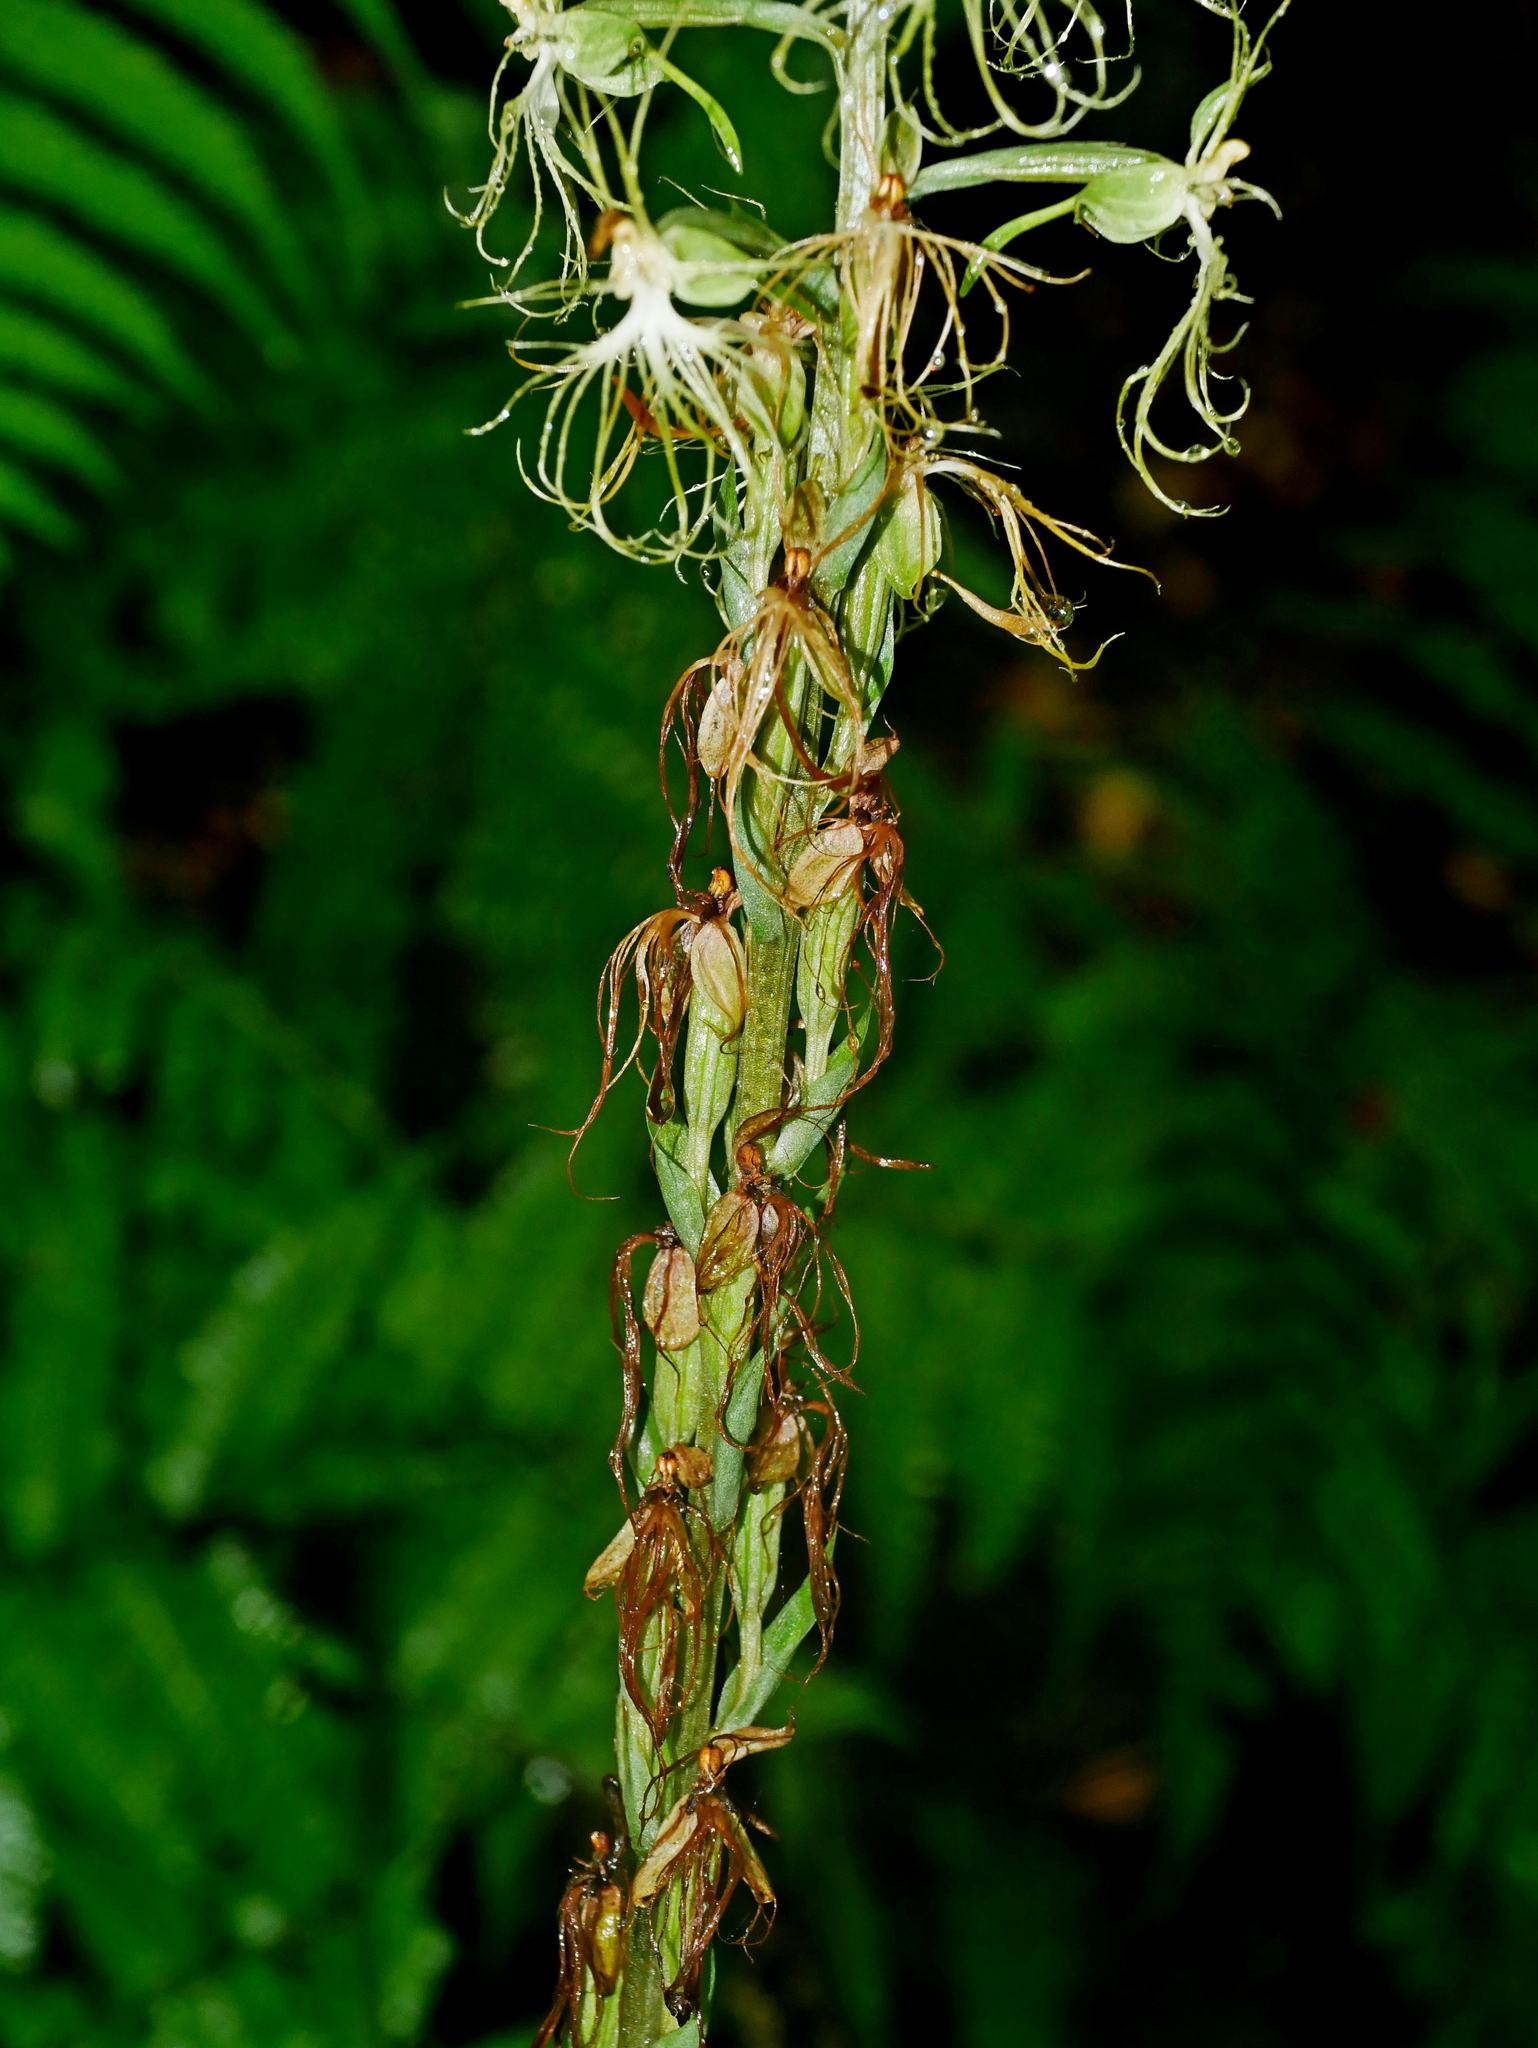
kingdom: Plantae
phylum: Tracheophyta
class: Liliopsida
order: Asparagales
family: Orchidaceae
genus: Habenaria
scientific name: Habenaria polytricha
